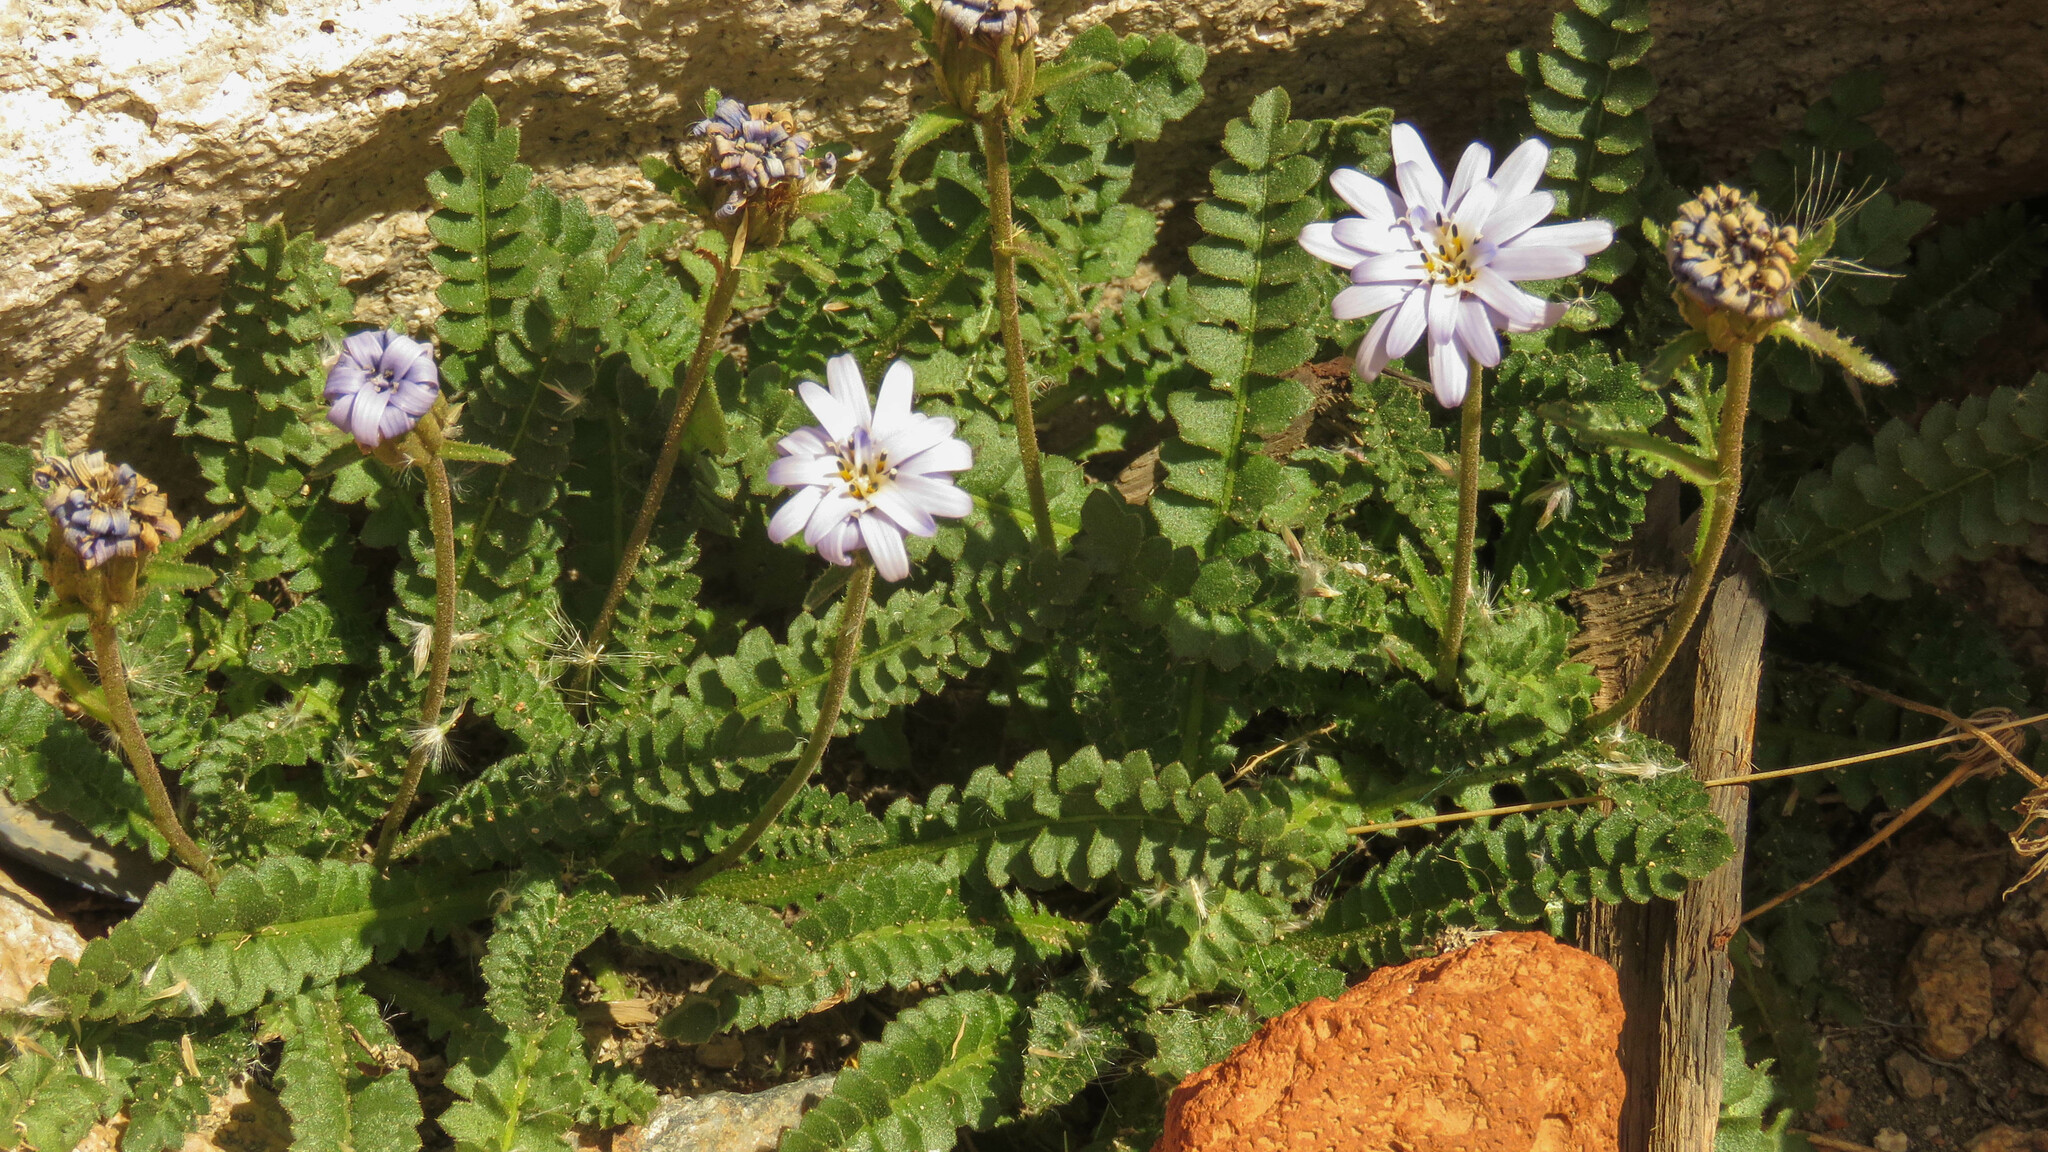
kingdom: Plantae
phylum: Tracheophyta
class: Magnoliopsida
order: Asterales
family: Asteraceae
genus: Perezia
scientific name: Perezia fonckii
